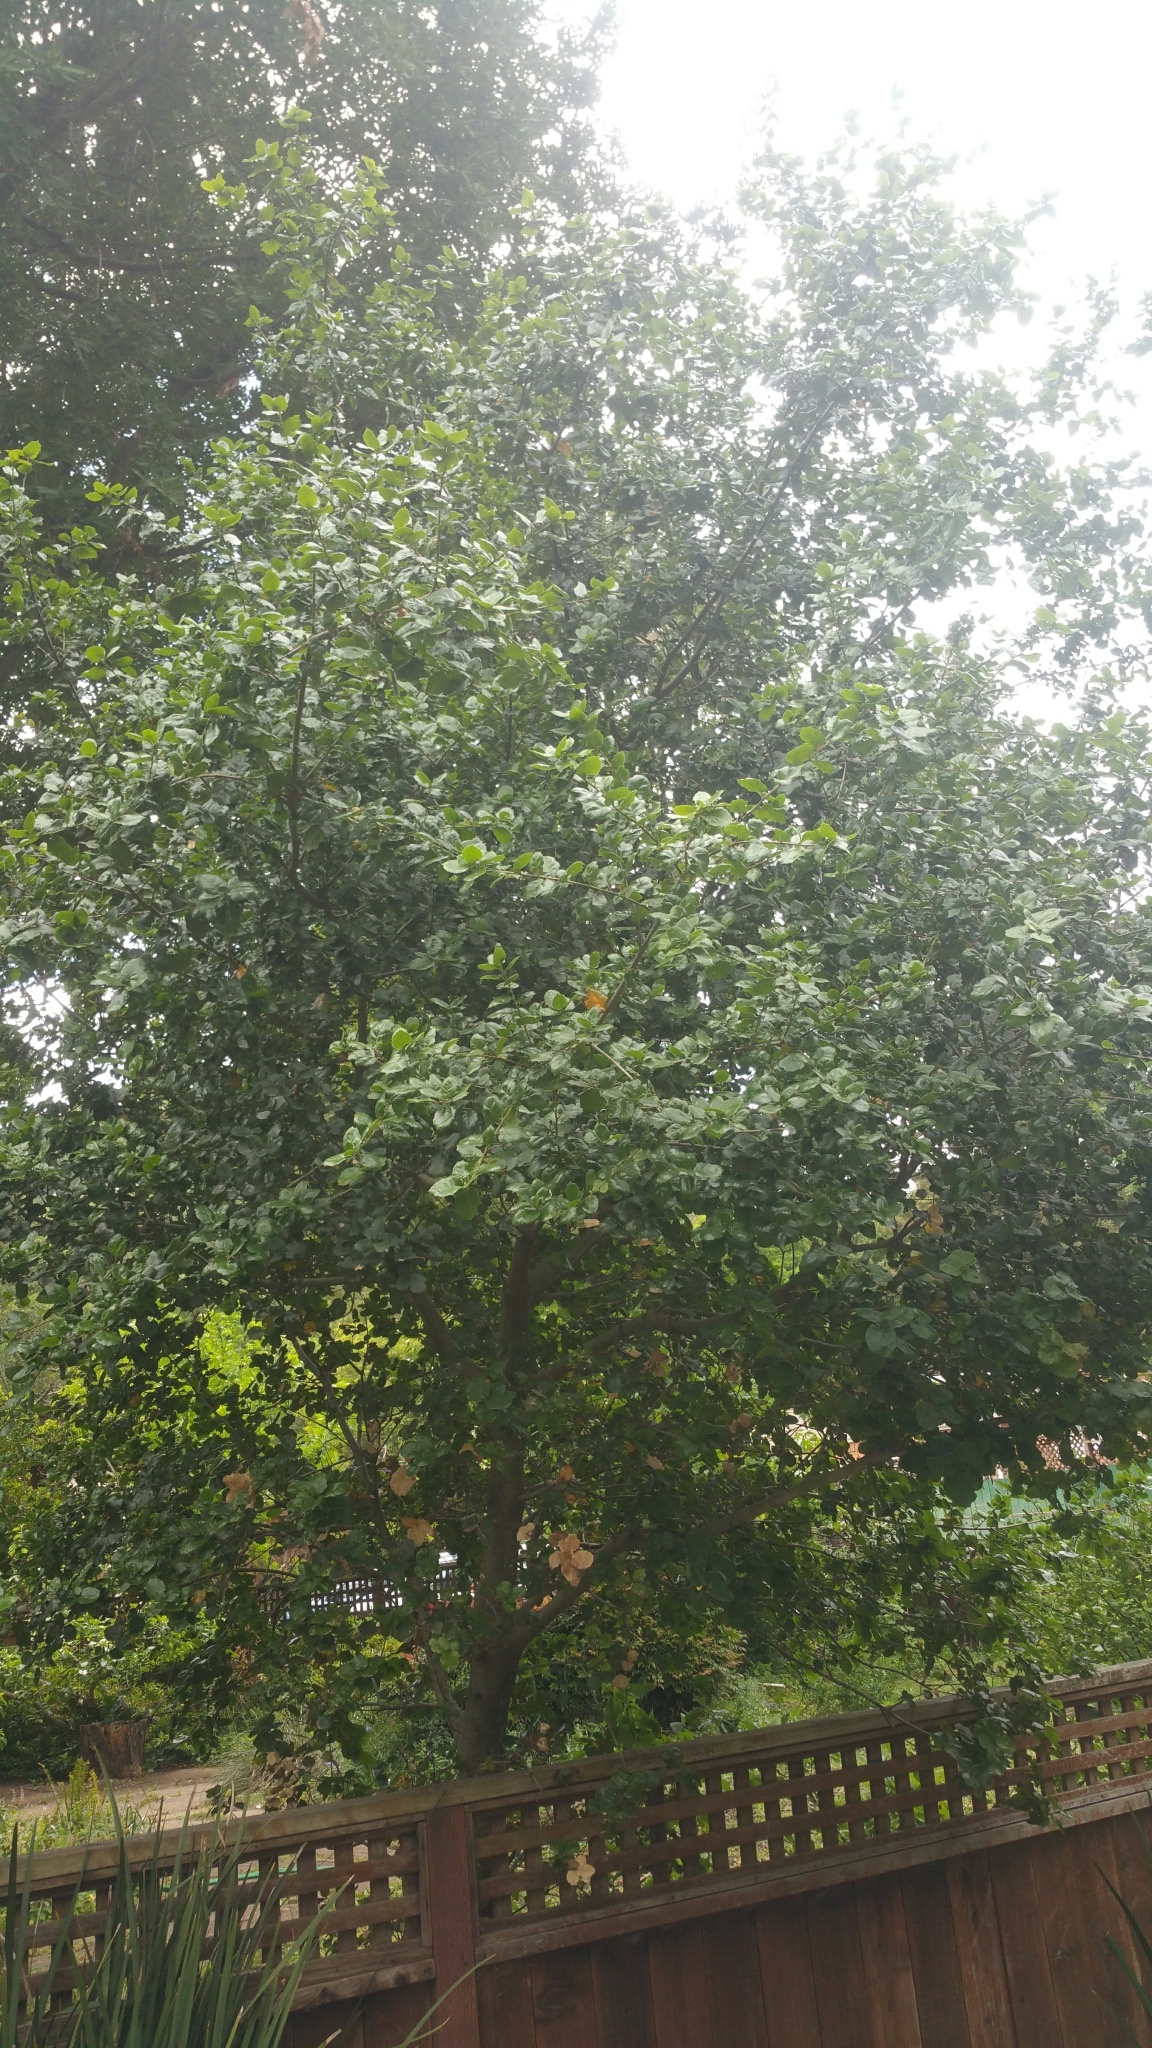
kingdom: Plantae
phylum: Tracheophyta
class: Magnoliopsida
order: Fagales
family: Fagaceae
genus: Quercus
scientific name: Quercus agrifolia
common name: California live oak
